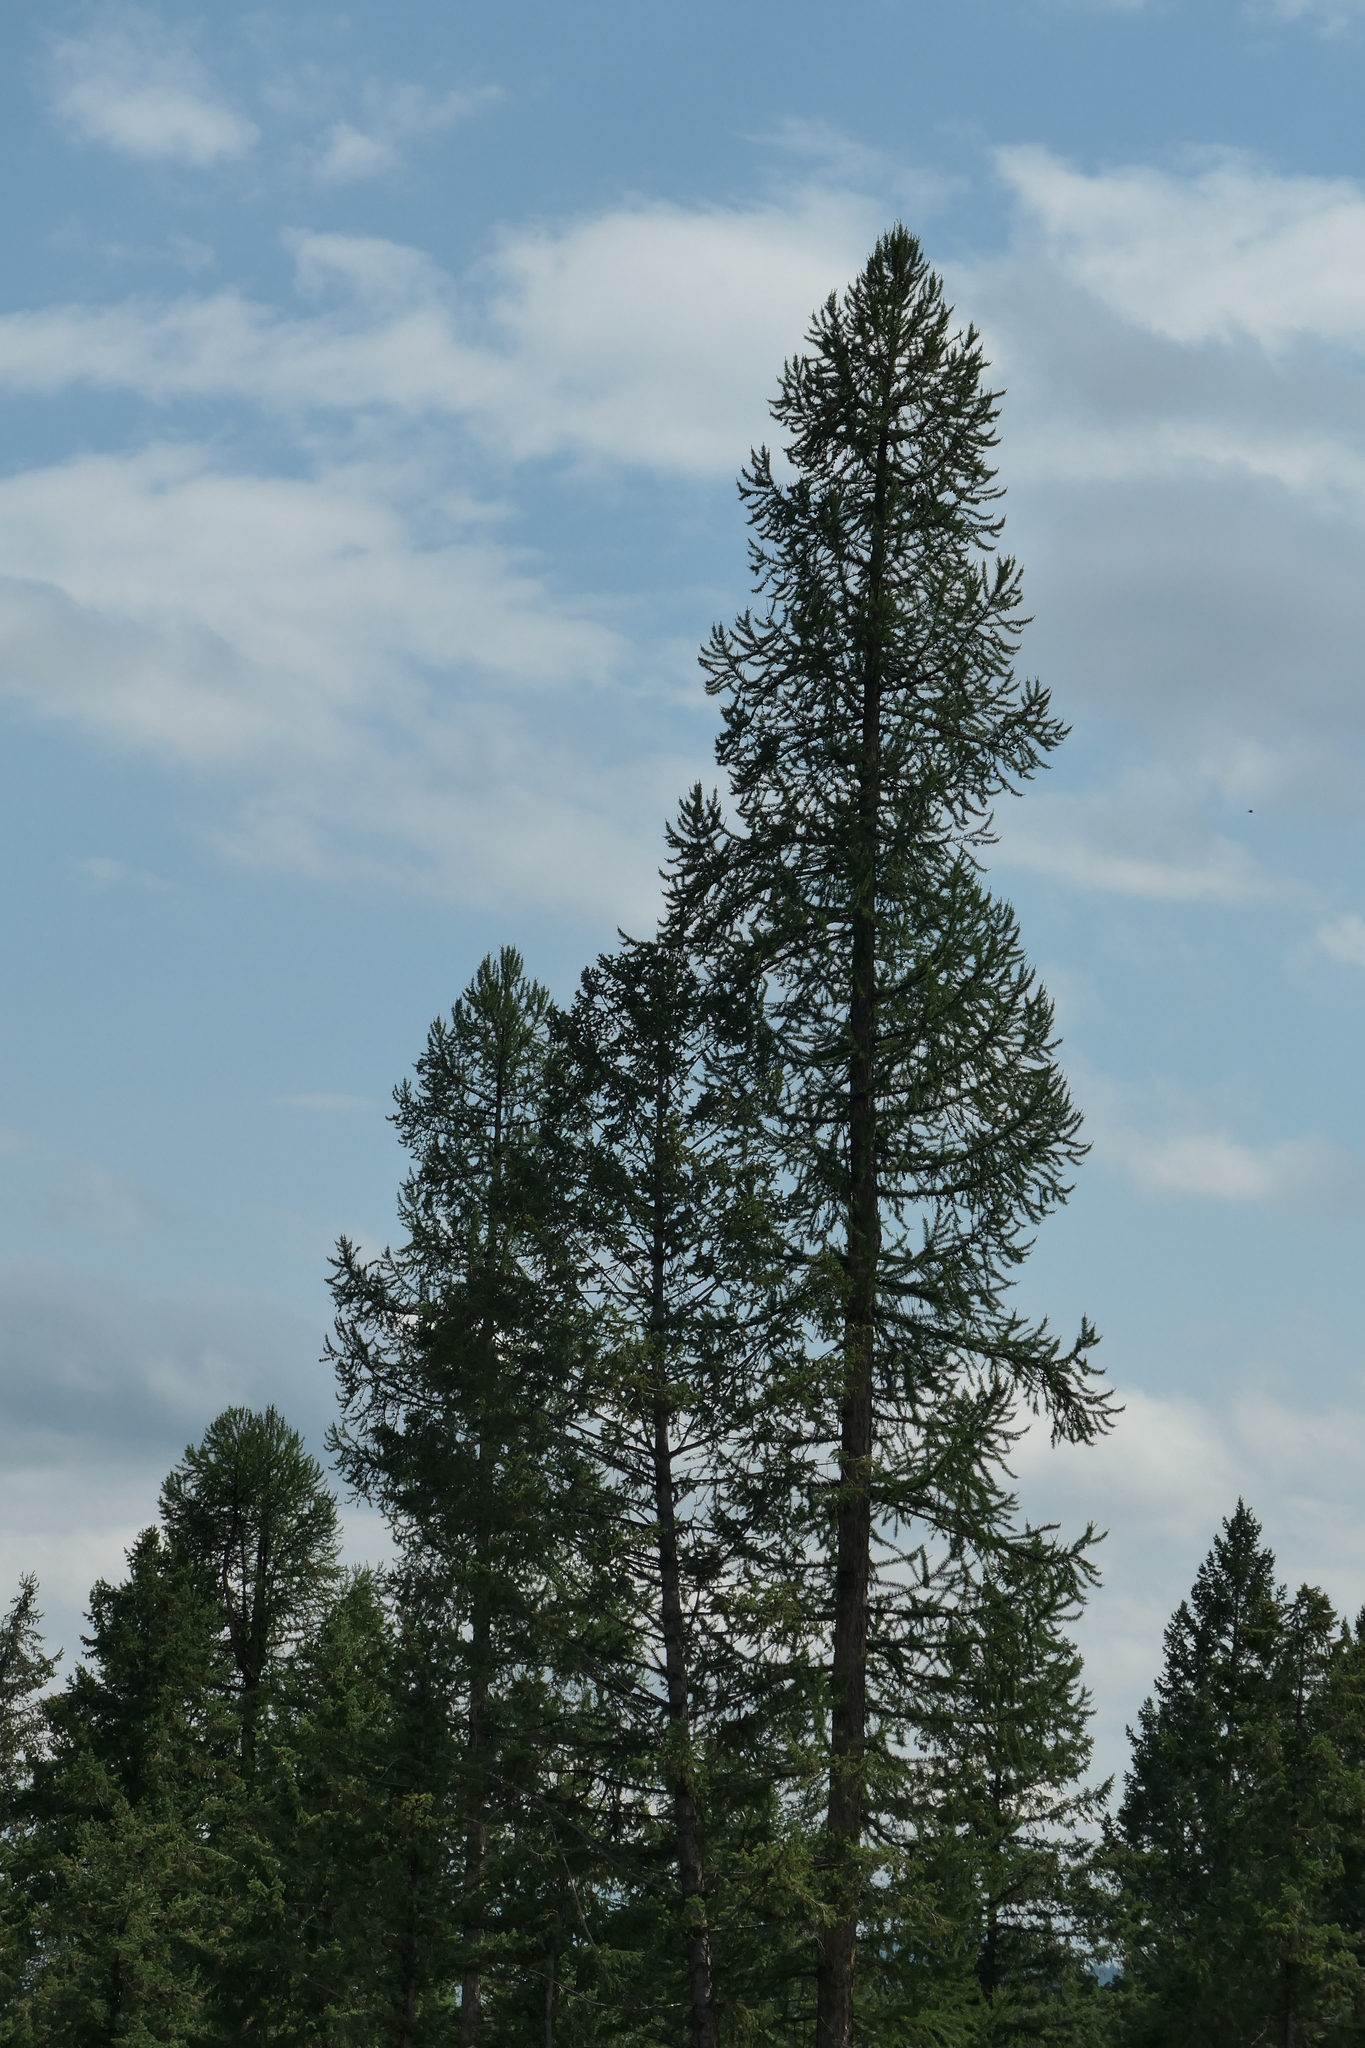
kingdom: Plantae
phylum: Tracheophyta
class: Pinopsida
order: Pinales
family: Pinaceae
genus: Larix
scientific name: Larix occidentalis
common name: Western larch
